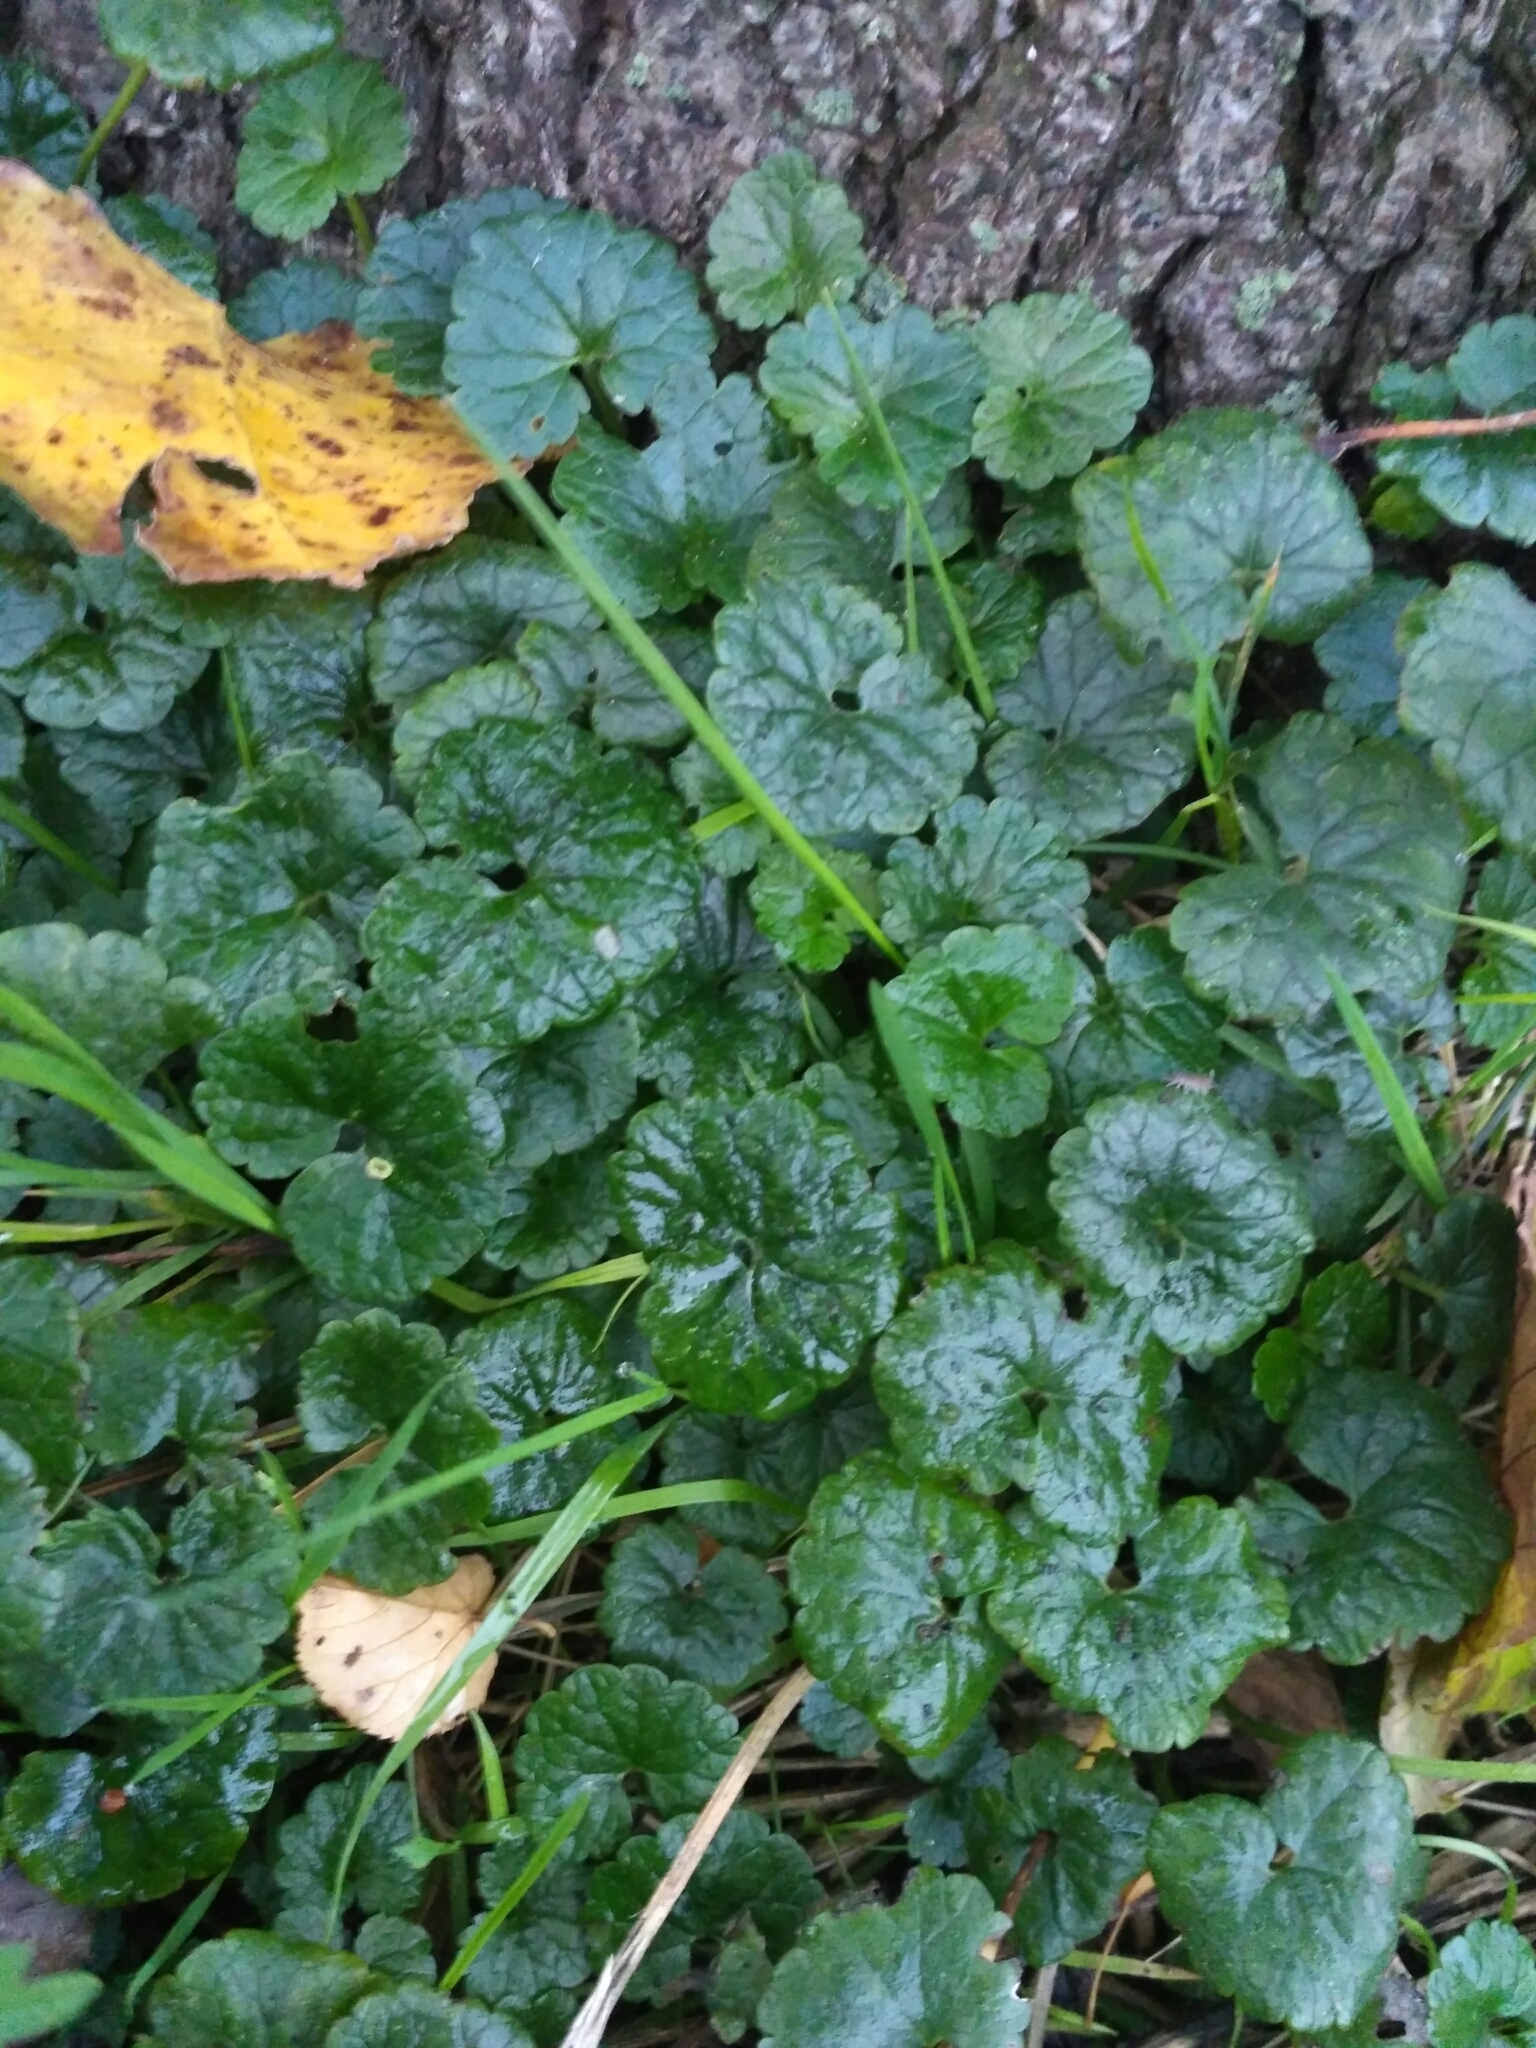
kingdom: Plantae
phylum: Tracheophyta
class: Magnoliopsida
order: Lamiales
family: Lamiaceae
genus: Glechoma
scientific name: Glechoma hederacea
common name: Ground ivy
